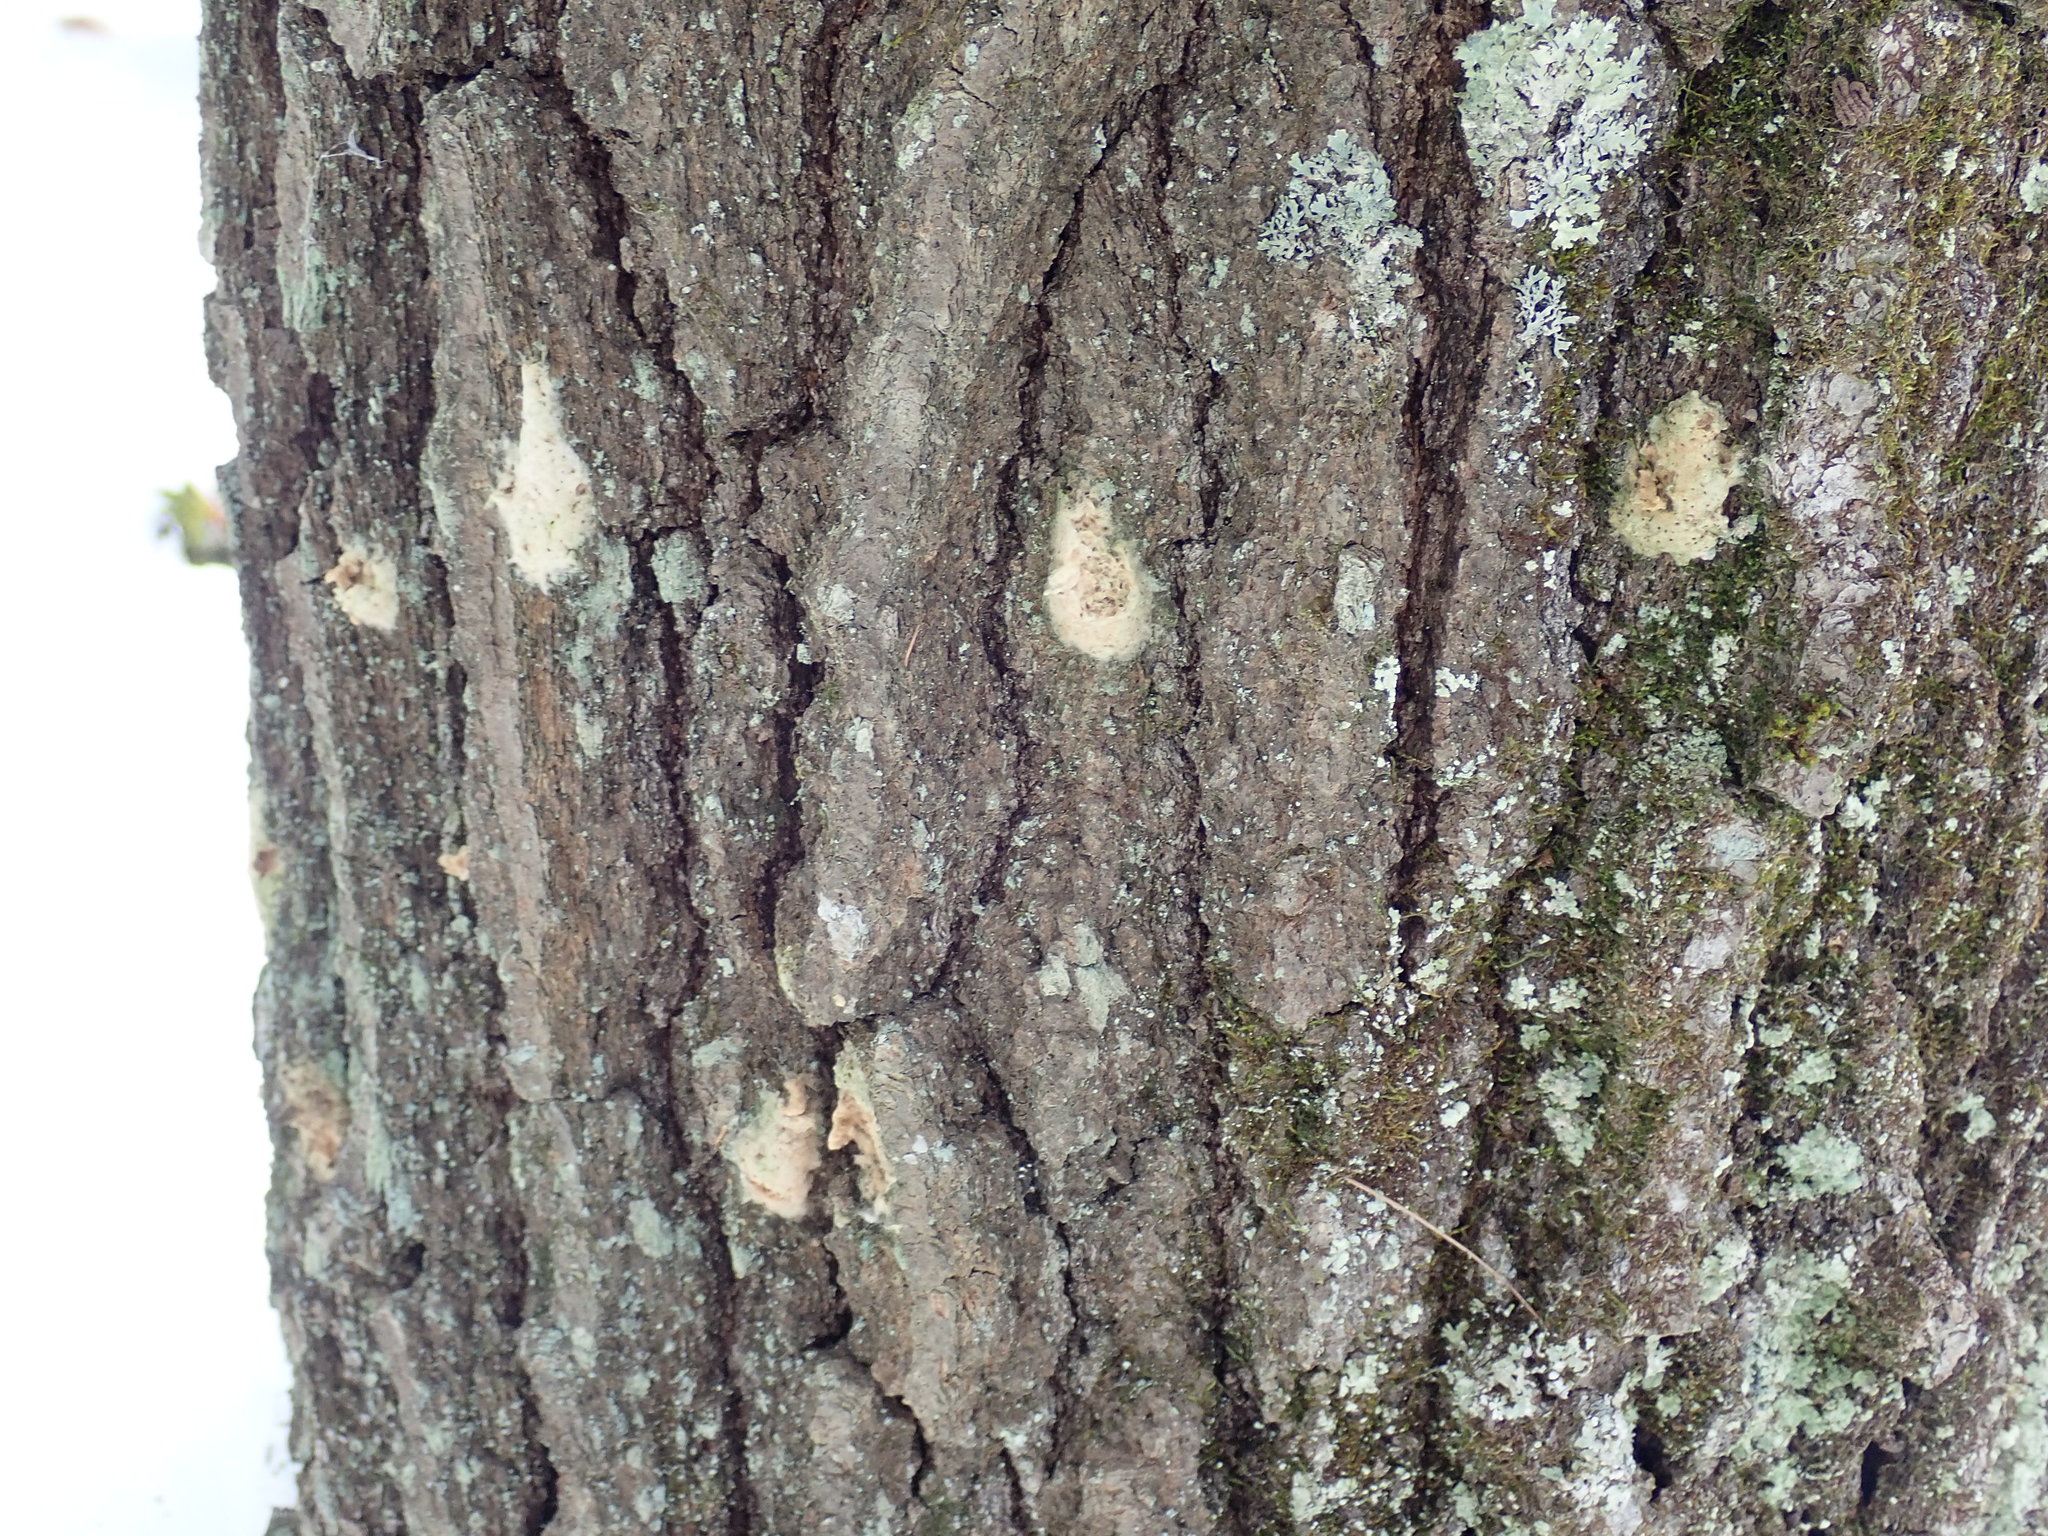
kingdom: Animalia
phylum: Arthropoda
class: Insecta
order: Lepidoptera
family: Erebidae
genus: Lymantria
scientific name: Lymantria dispar
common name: Gypsy moth
